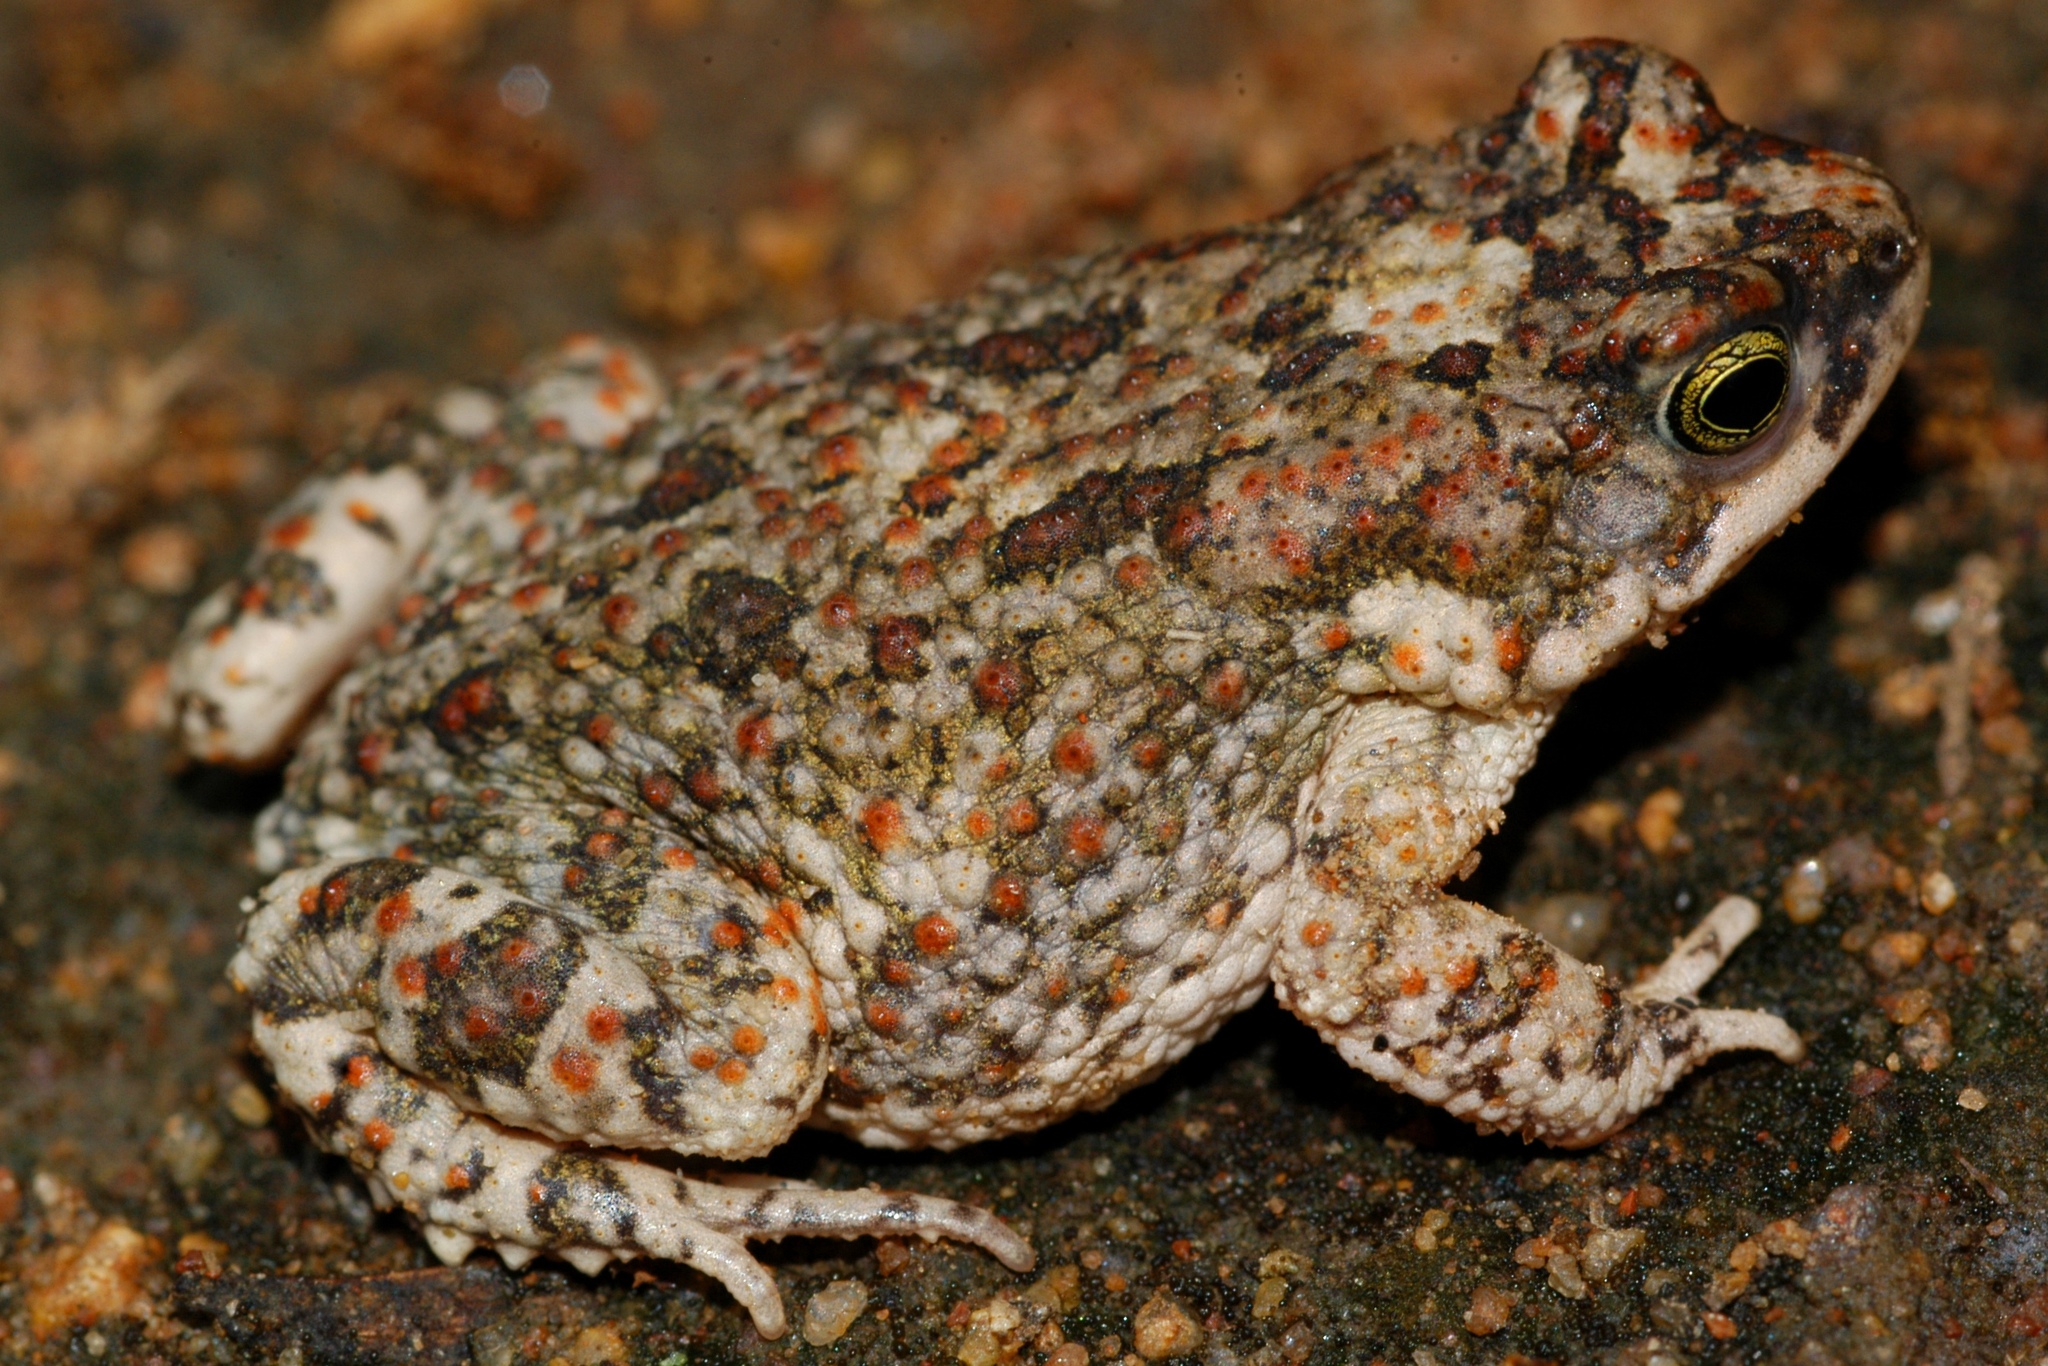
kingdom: Animalia
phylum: Chordata
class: Amphibia
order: Anura
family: Bufonidae
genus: Poyntonophrynus
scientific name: Poyntonophrynus fenoulheti
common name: Fenoulhet's toad
